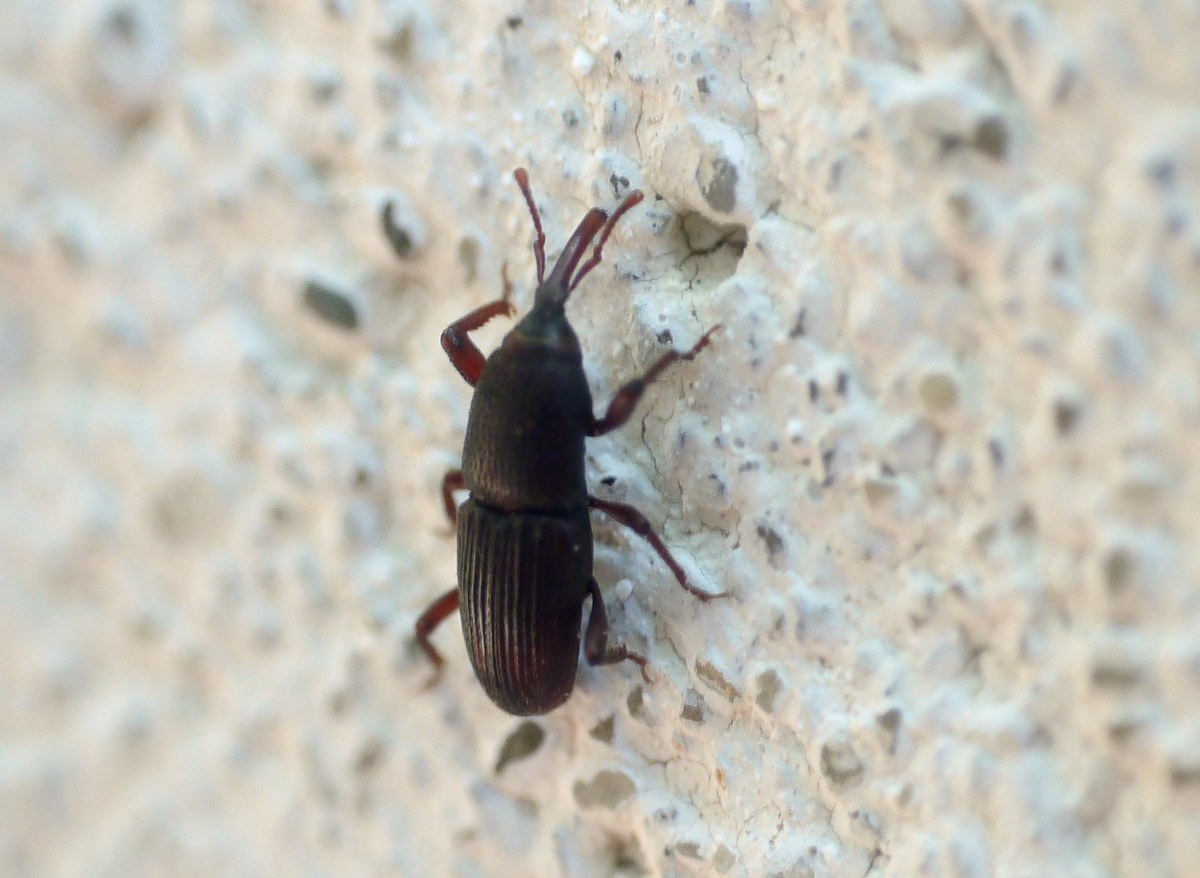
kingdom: Animalia
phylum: Arthropoda
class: Insecta
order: Coleoptera
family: Dryophthoridae
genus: Sitophilus
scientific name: Sitophilus granarius
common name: Granary weevil
